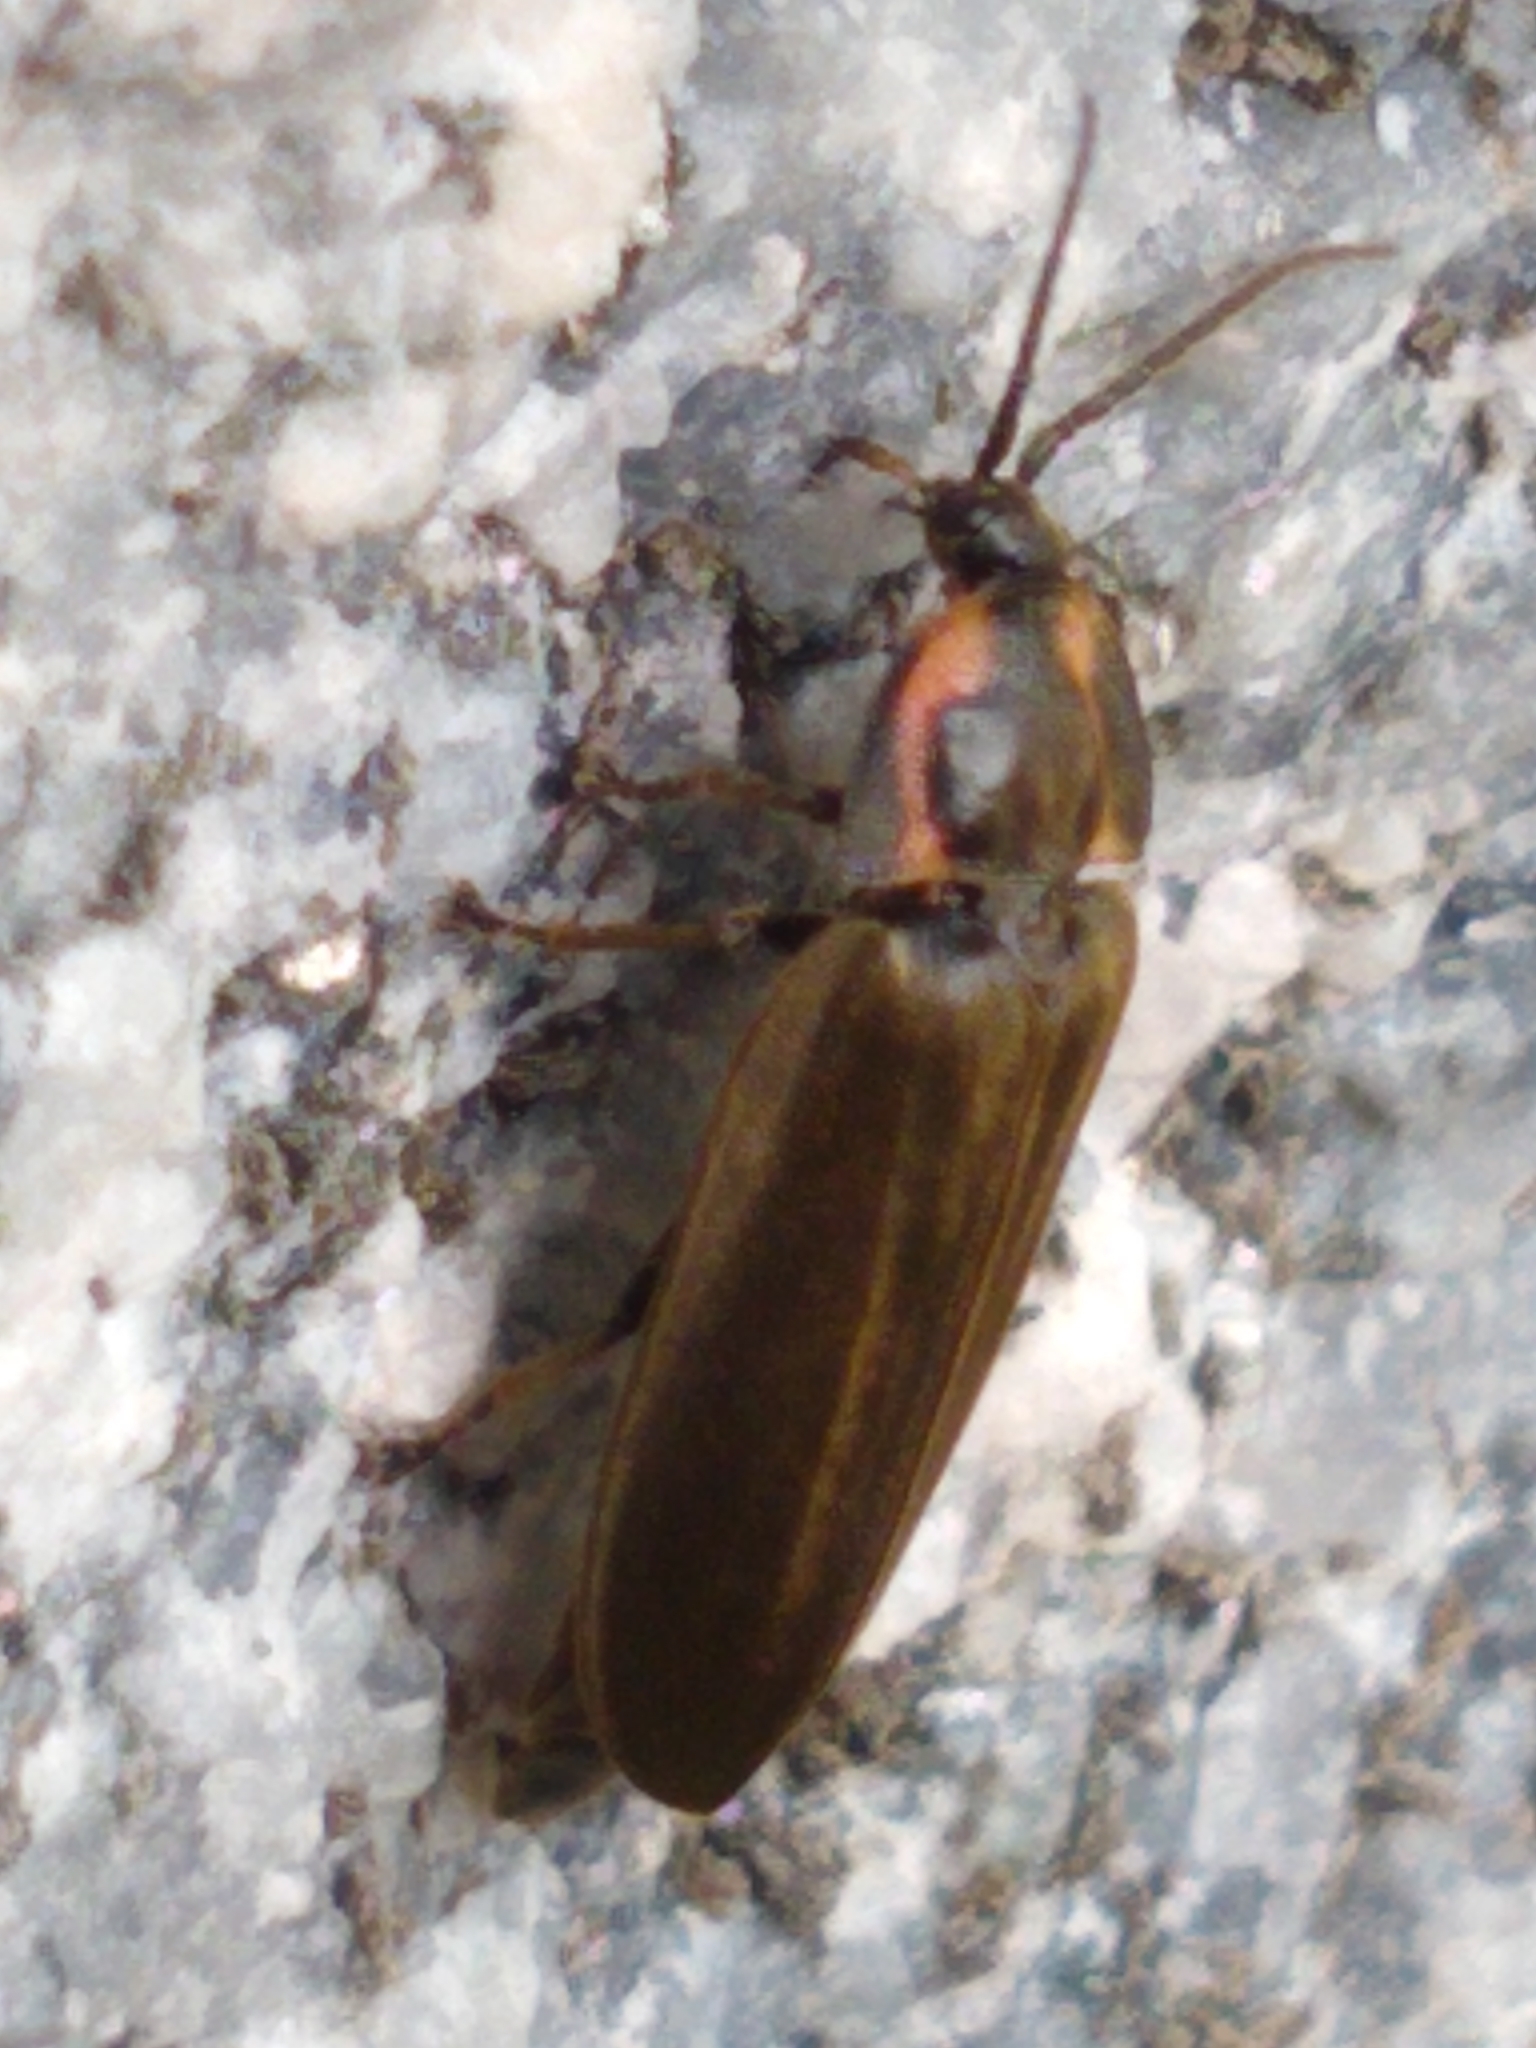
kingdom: Animalia
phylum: Arthropoda
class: Insecta
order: Coleoptera
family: Lampyridae
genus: Photinus
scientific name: Photinus corrusca
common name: Winter firefly
